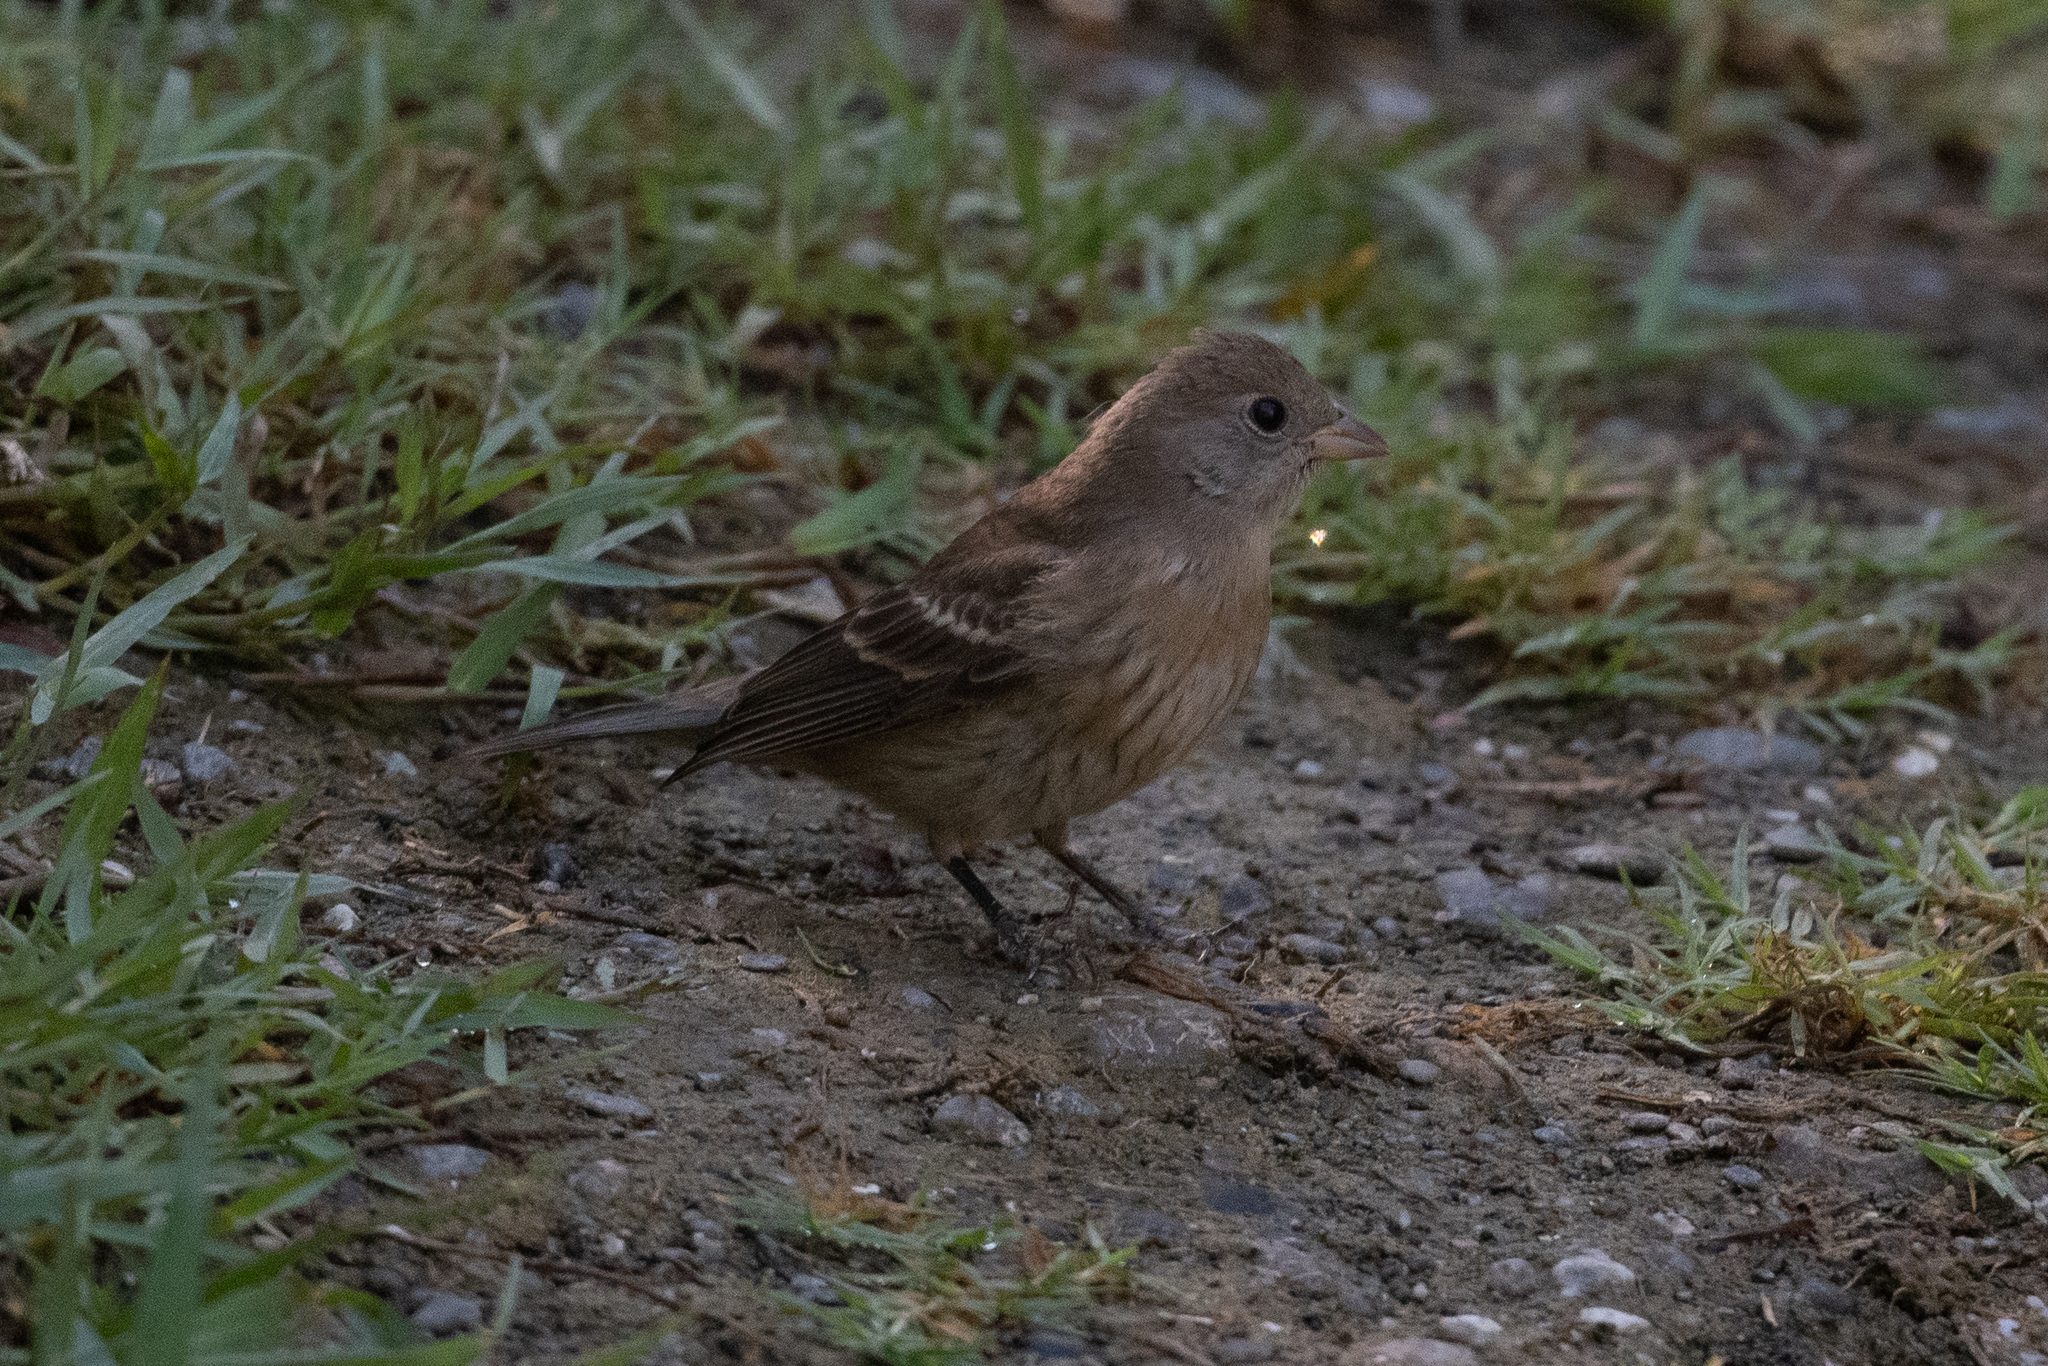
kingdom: Animalia
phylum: Chordata
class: Aves
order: Passeriformes
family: Cardinalidae
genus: Passerina
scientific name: Passerina amoena
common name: Lazuli bunting
